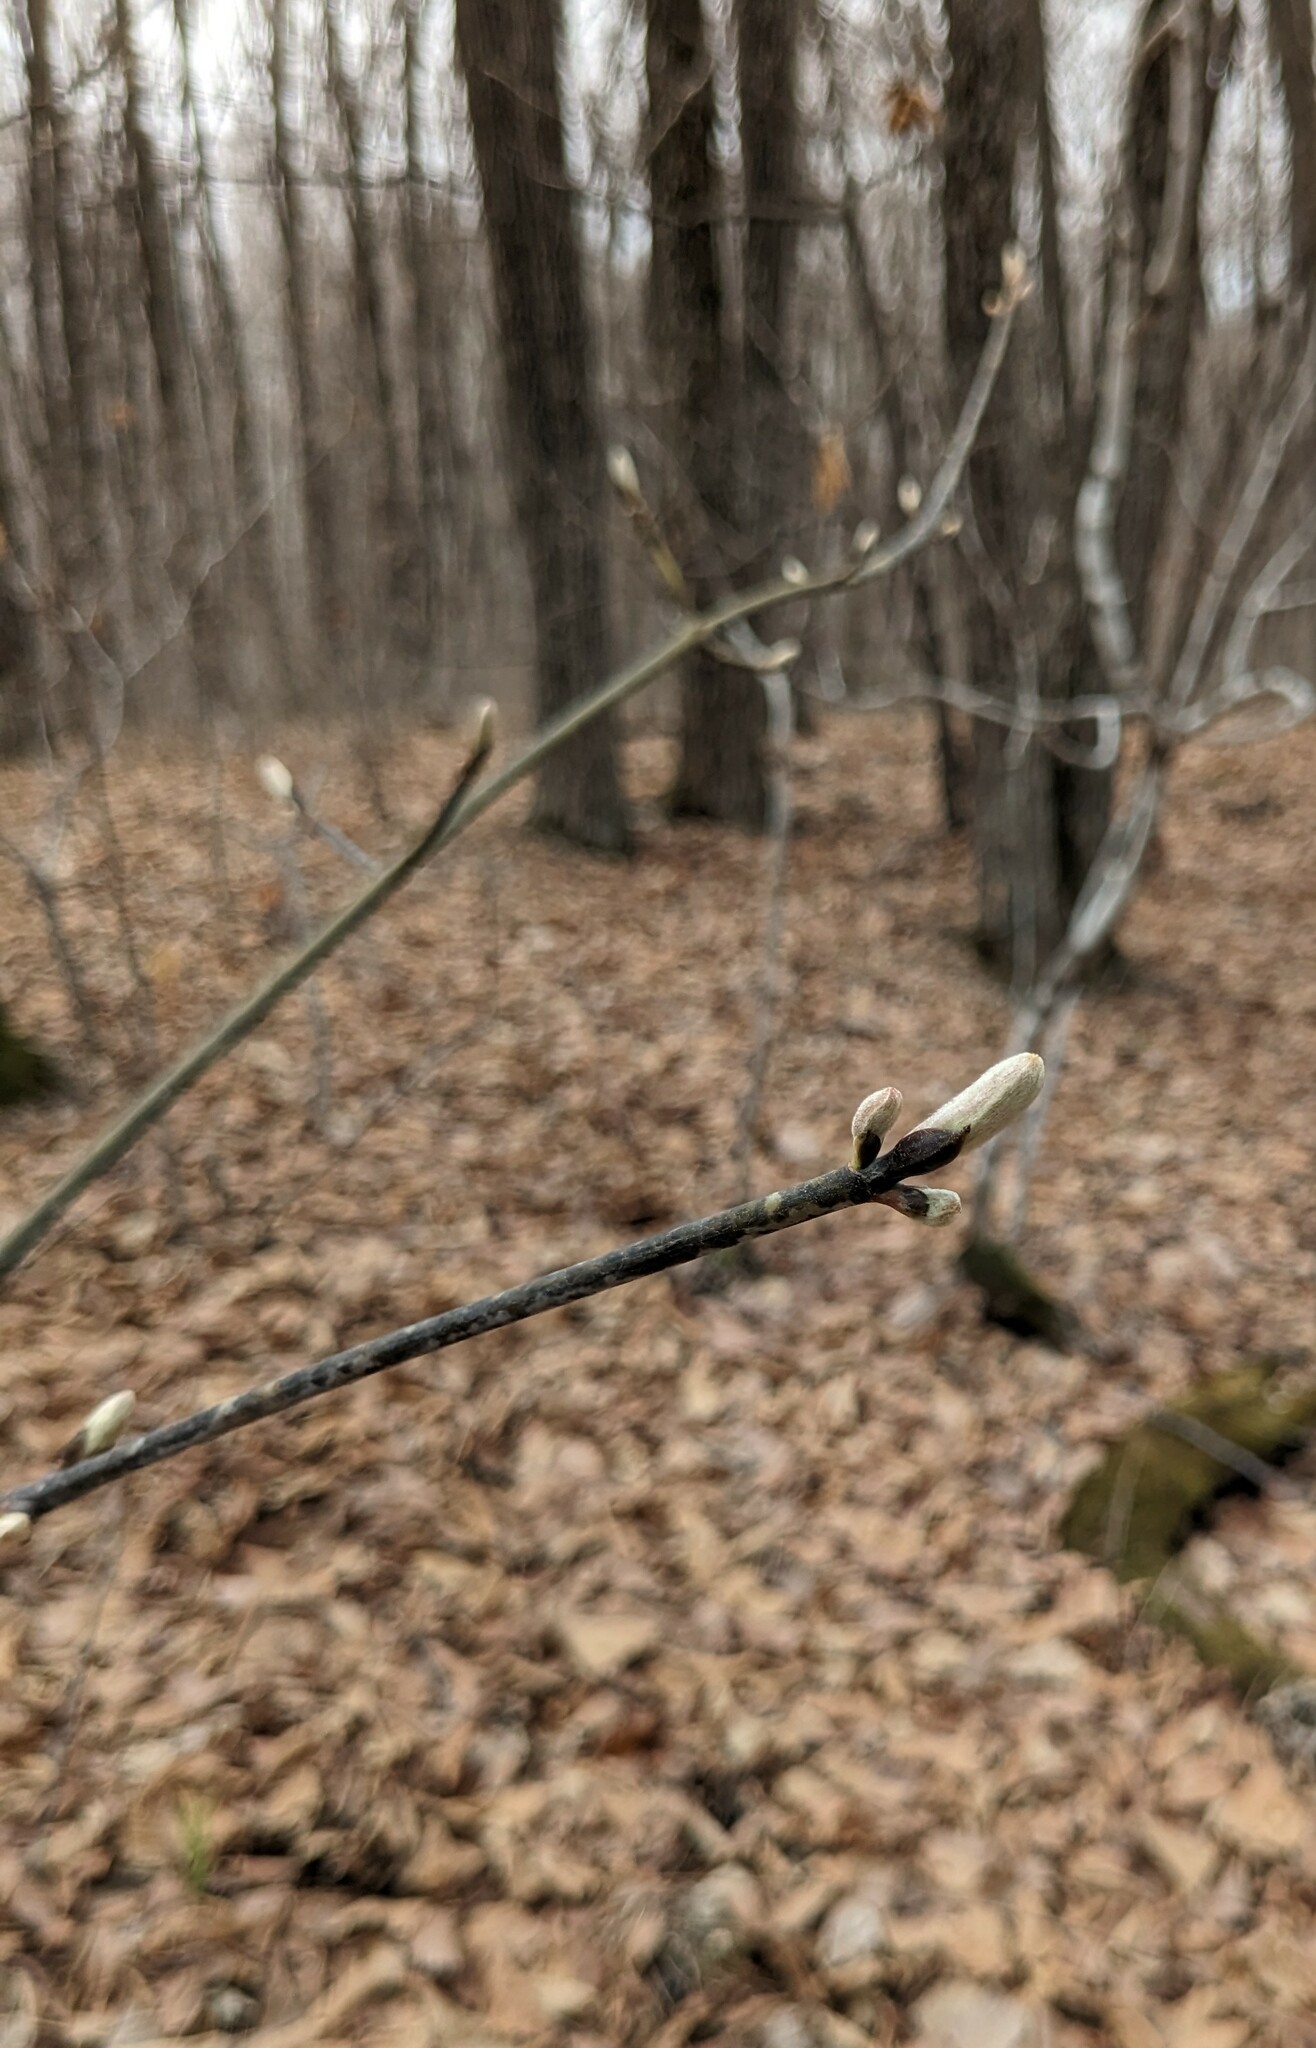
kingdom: Plantae
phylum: Tracheophyta
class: Magnoliopsida
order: Sapindales
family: Sapindaceae
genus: Acer
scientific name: Acer tegmentosum
